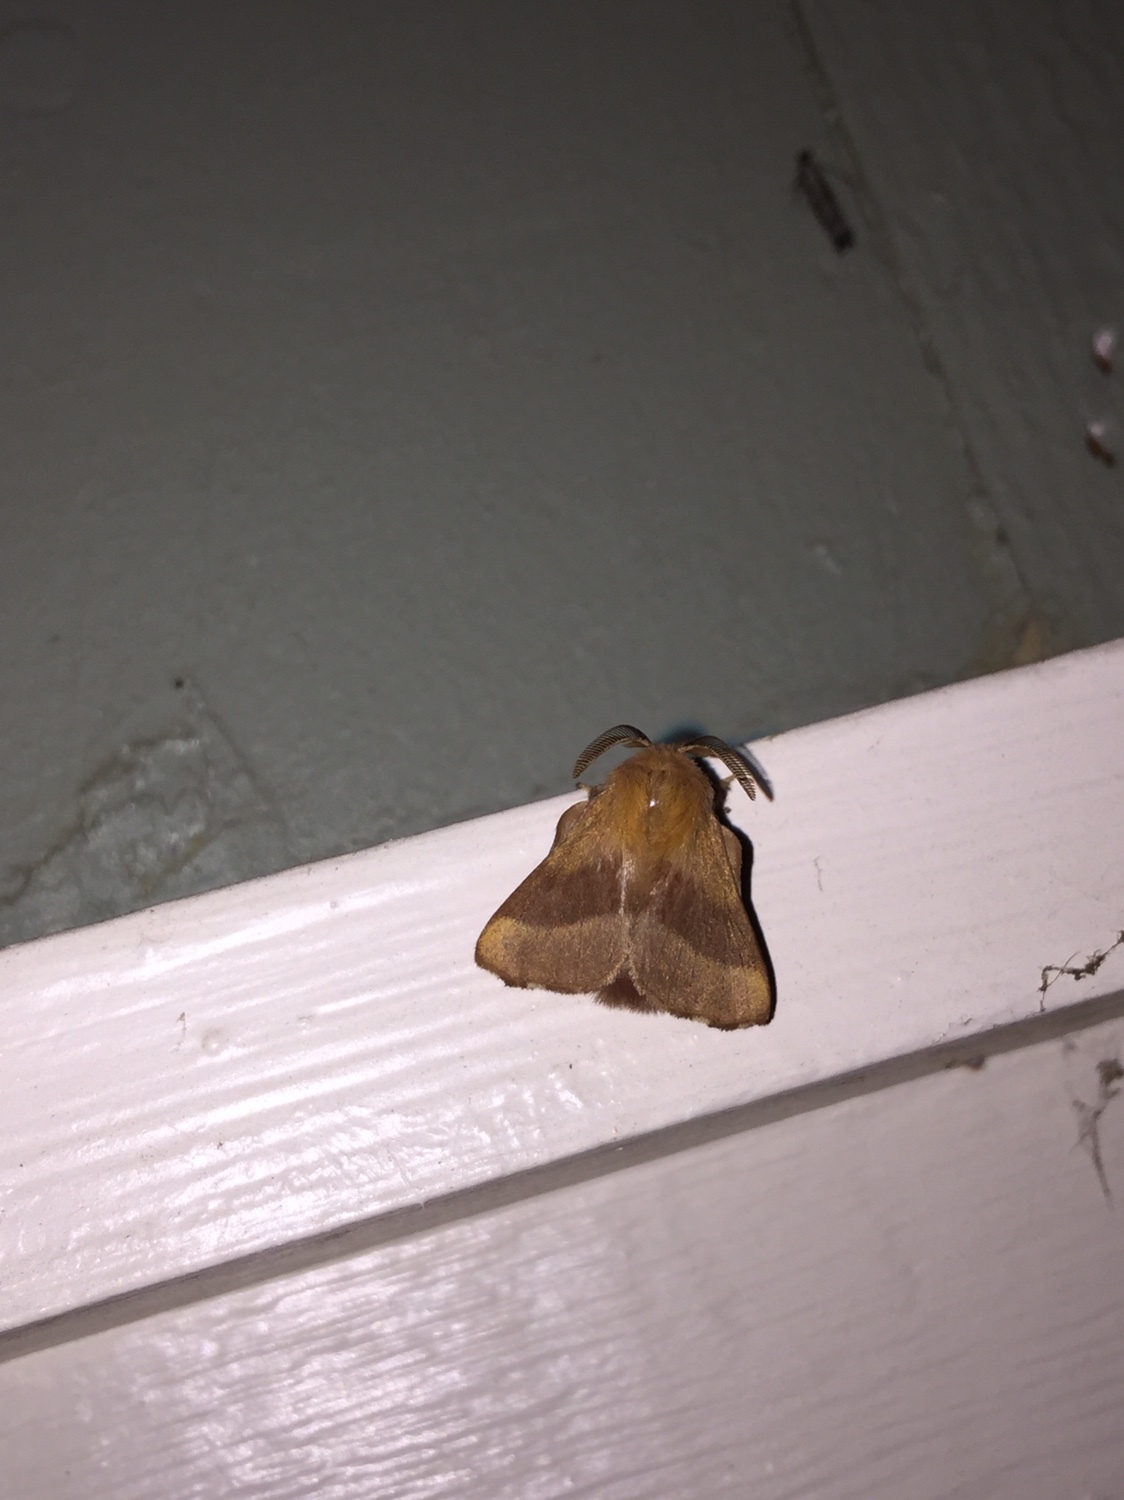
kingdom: Animalia
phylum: Arthropoda
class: Insecta
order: Lepidoptera
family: Lasiocampidae
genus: Malacosoma
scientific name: Malacosoma disstria
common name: Forest tent caterpillar
